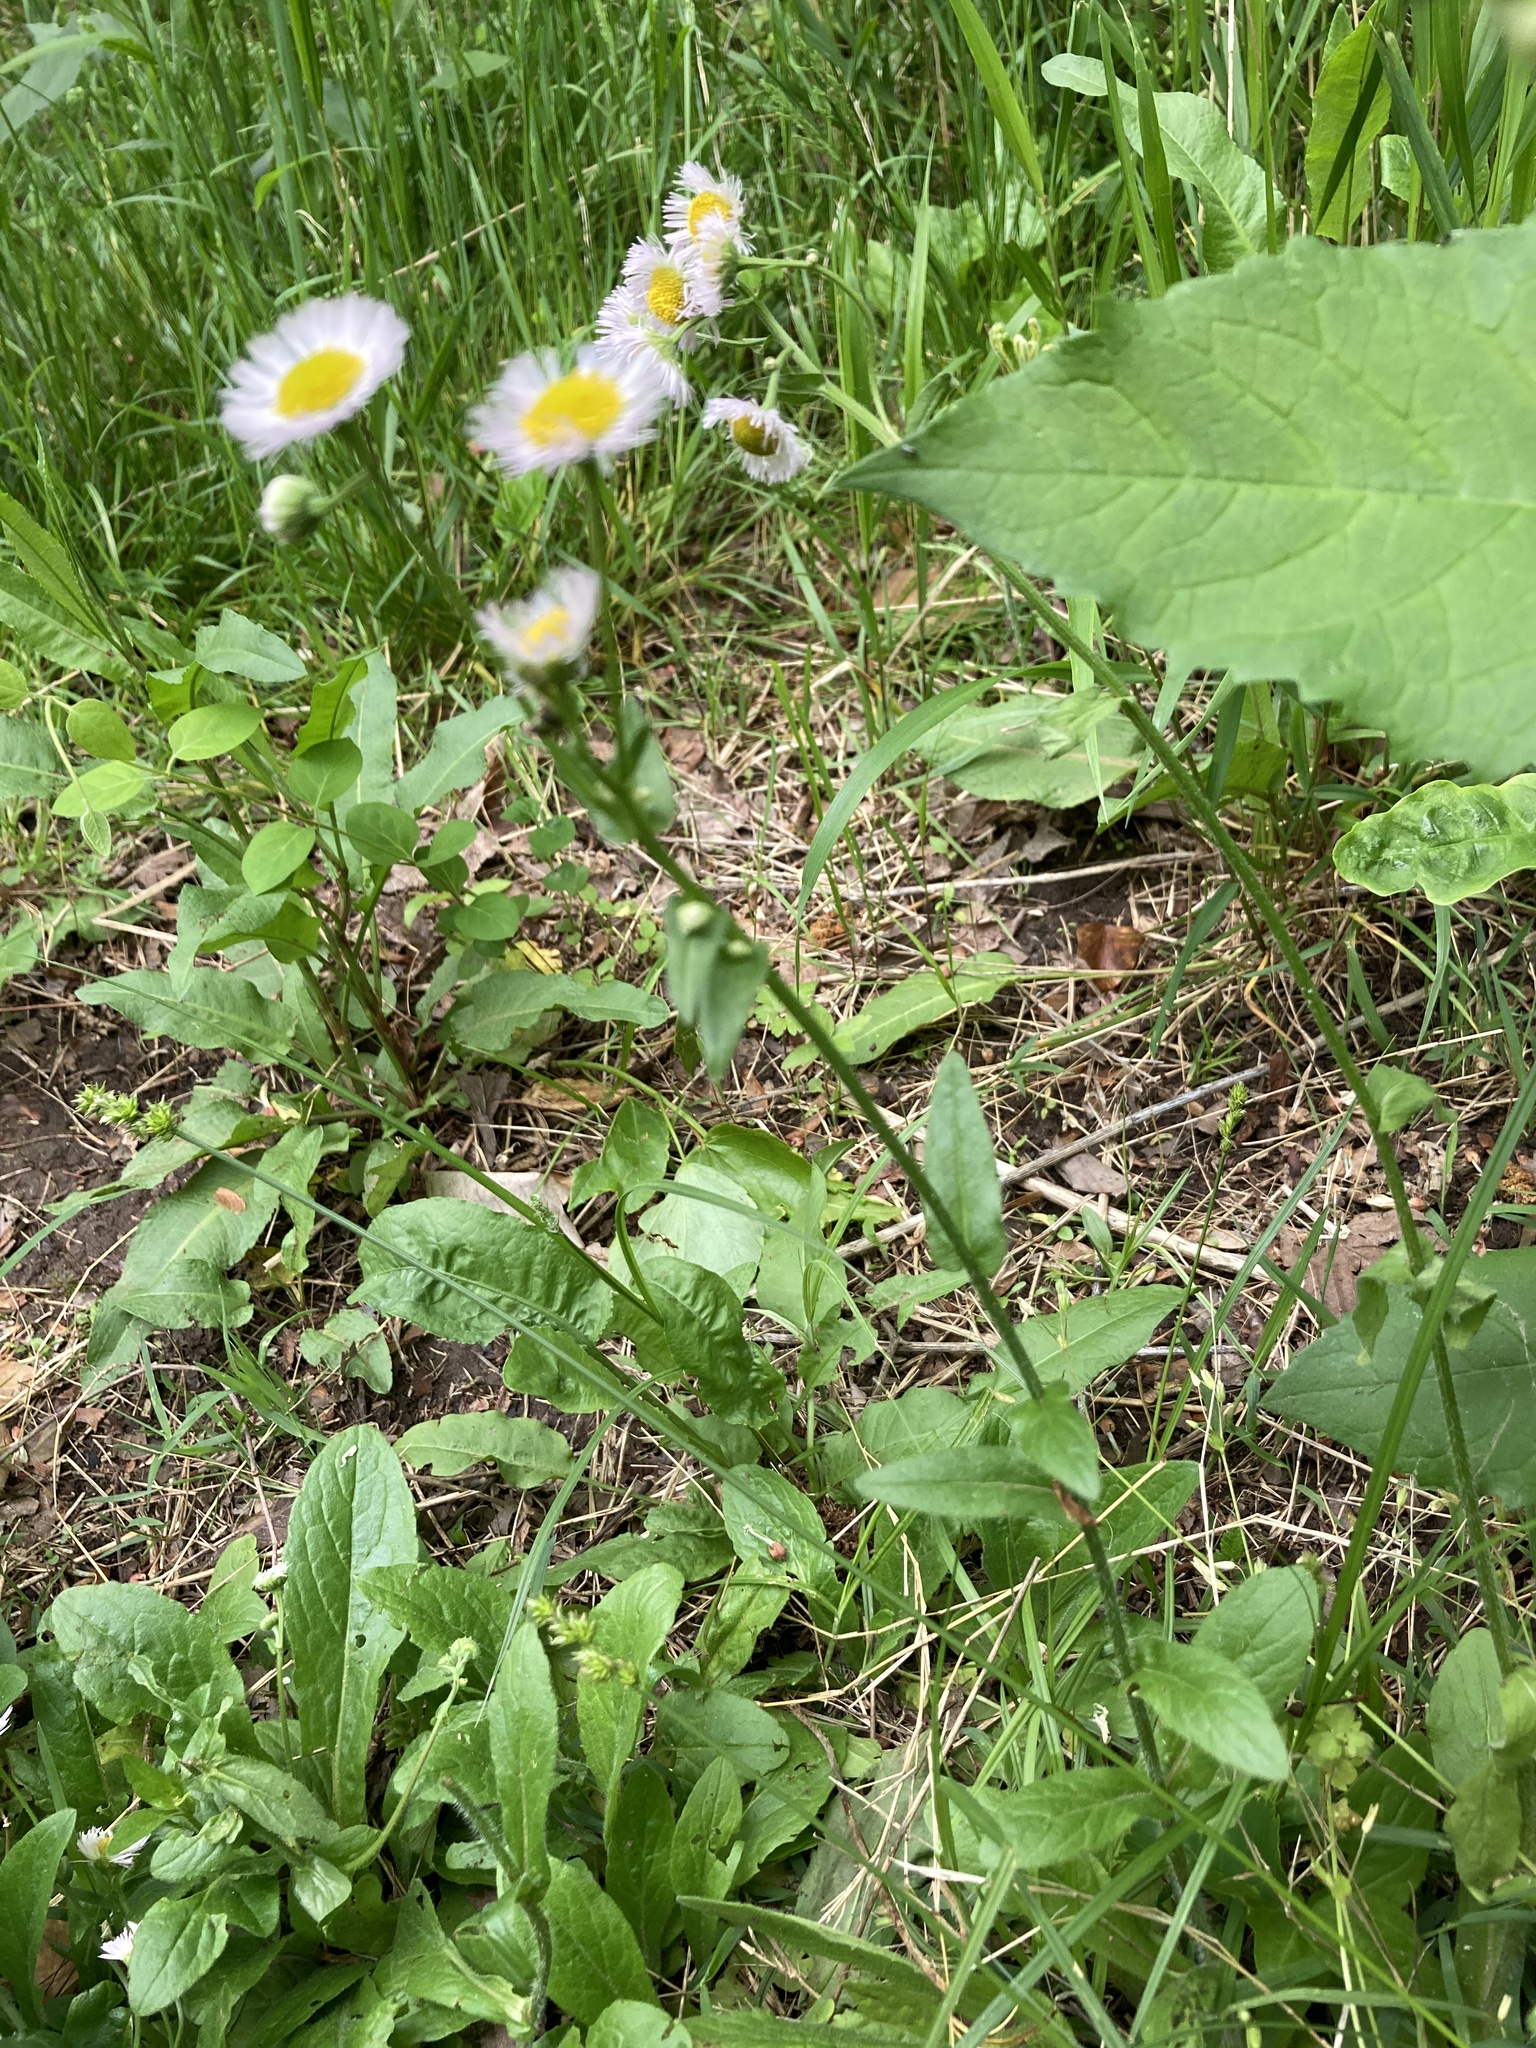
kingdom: Plantae
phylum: Tracheophyta
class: Magnoliopsida
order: Asterales
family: Asteraceae
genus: Erigeron
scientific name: Erigeron philadelphicus
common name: Robin's-plantain
